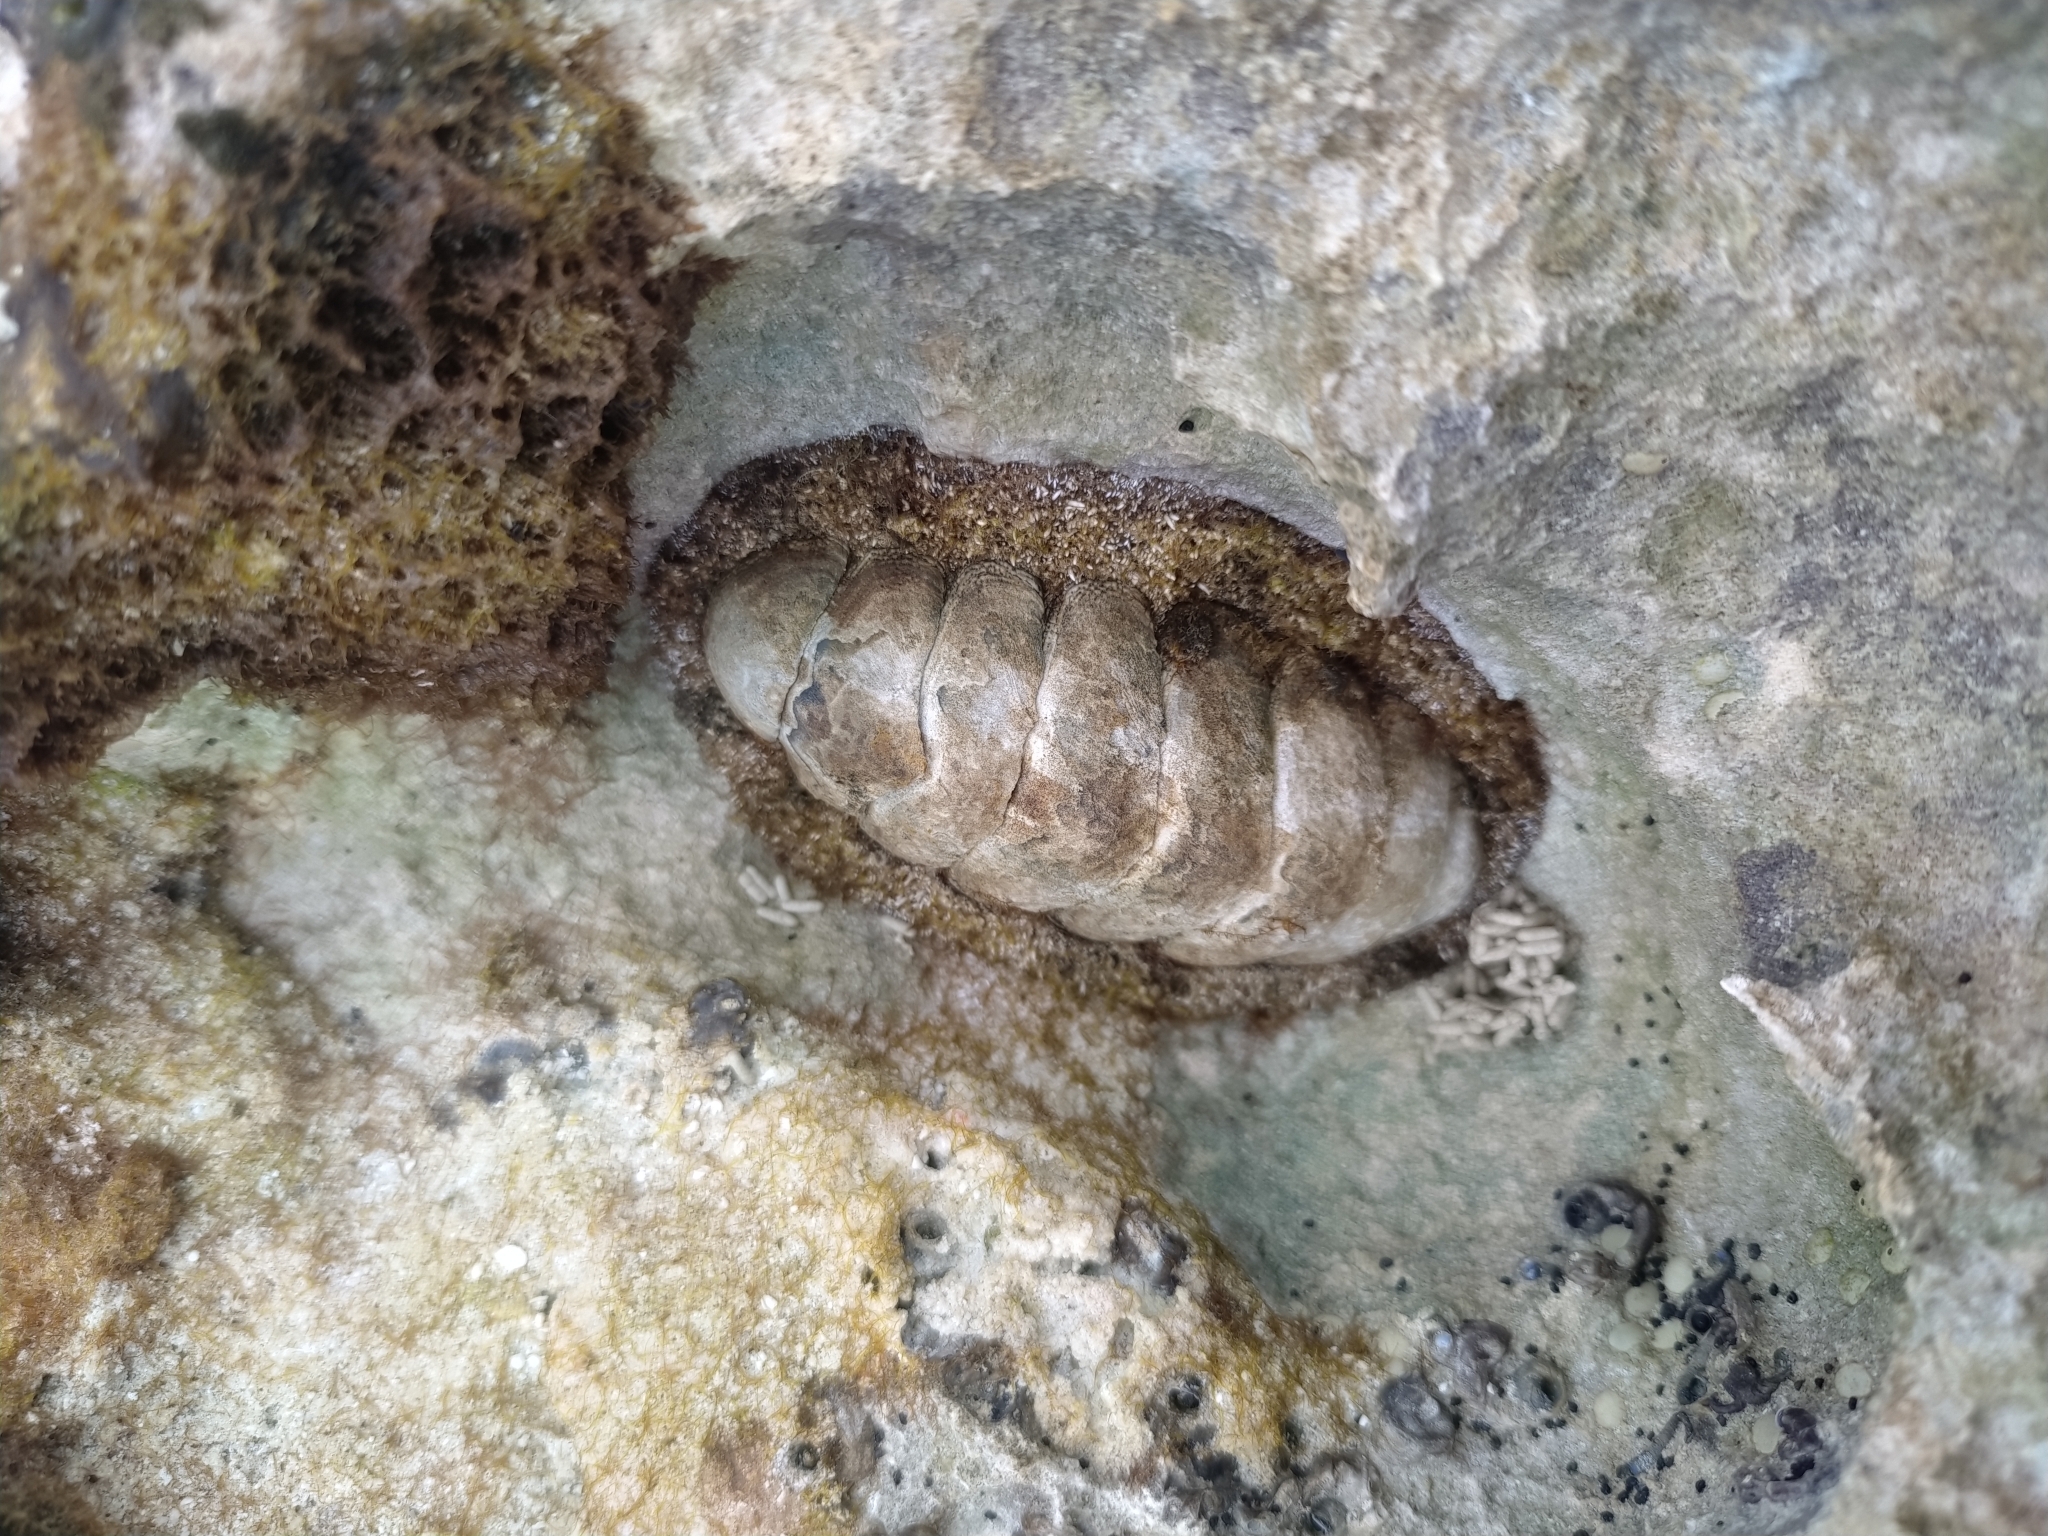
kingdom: Animalia
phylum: Mollusca
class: Polyplacophora
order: Chitonida
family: Chitonidae
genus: Acanthopleura
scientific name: Acanthopleura granulata
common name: West indian fuzzy chiton
